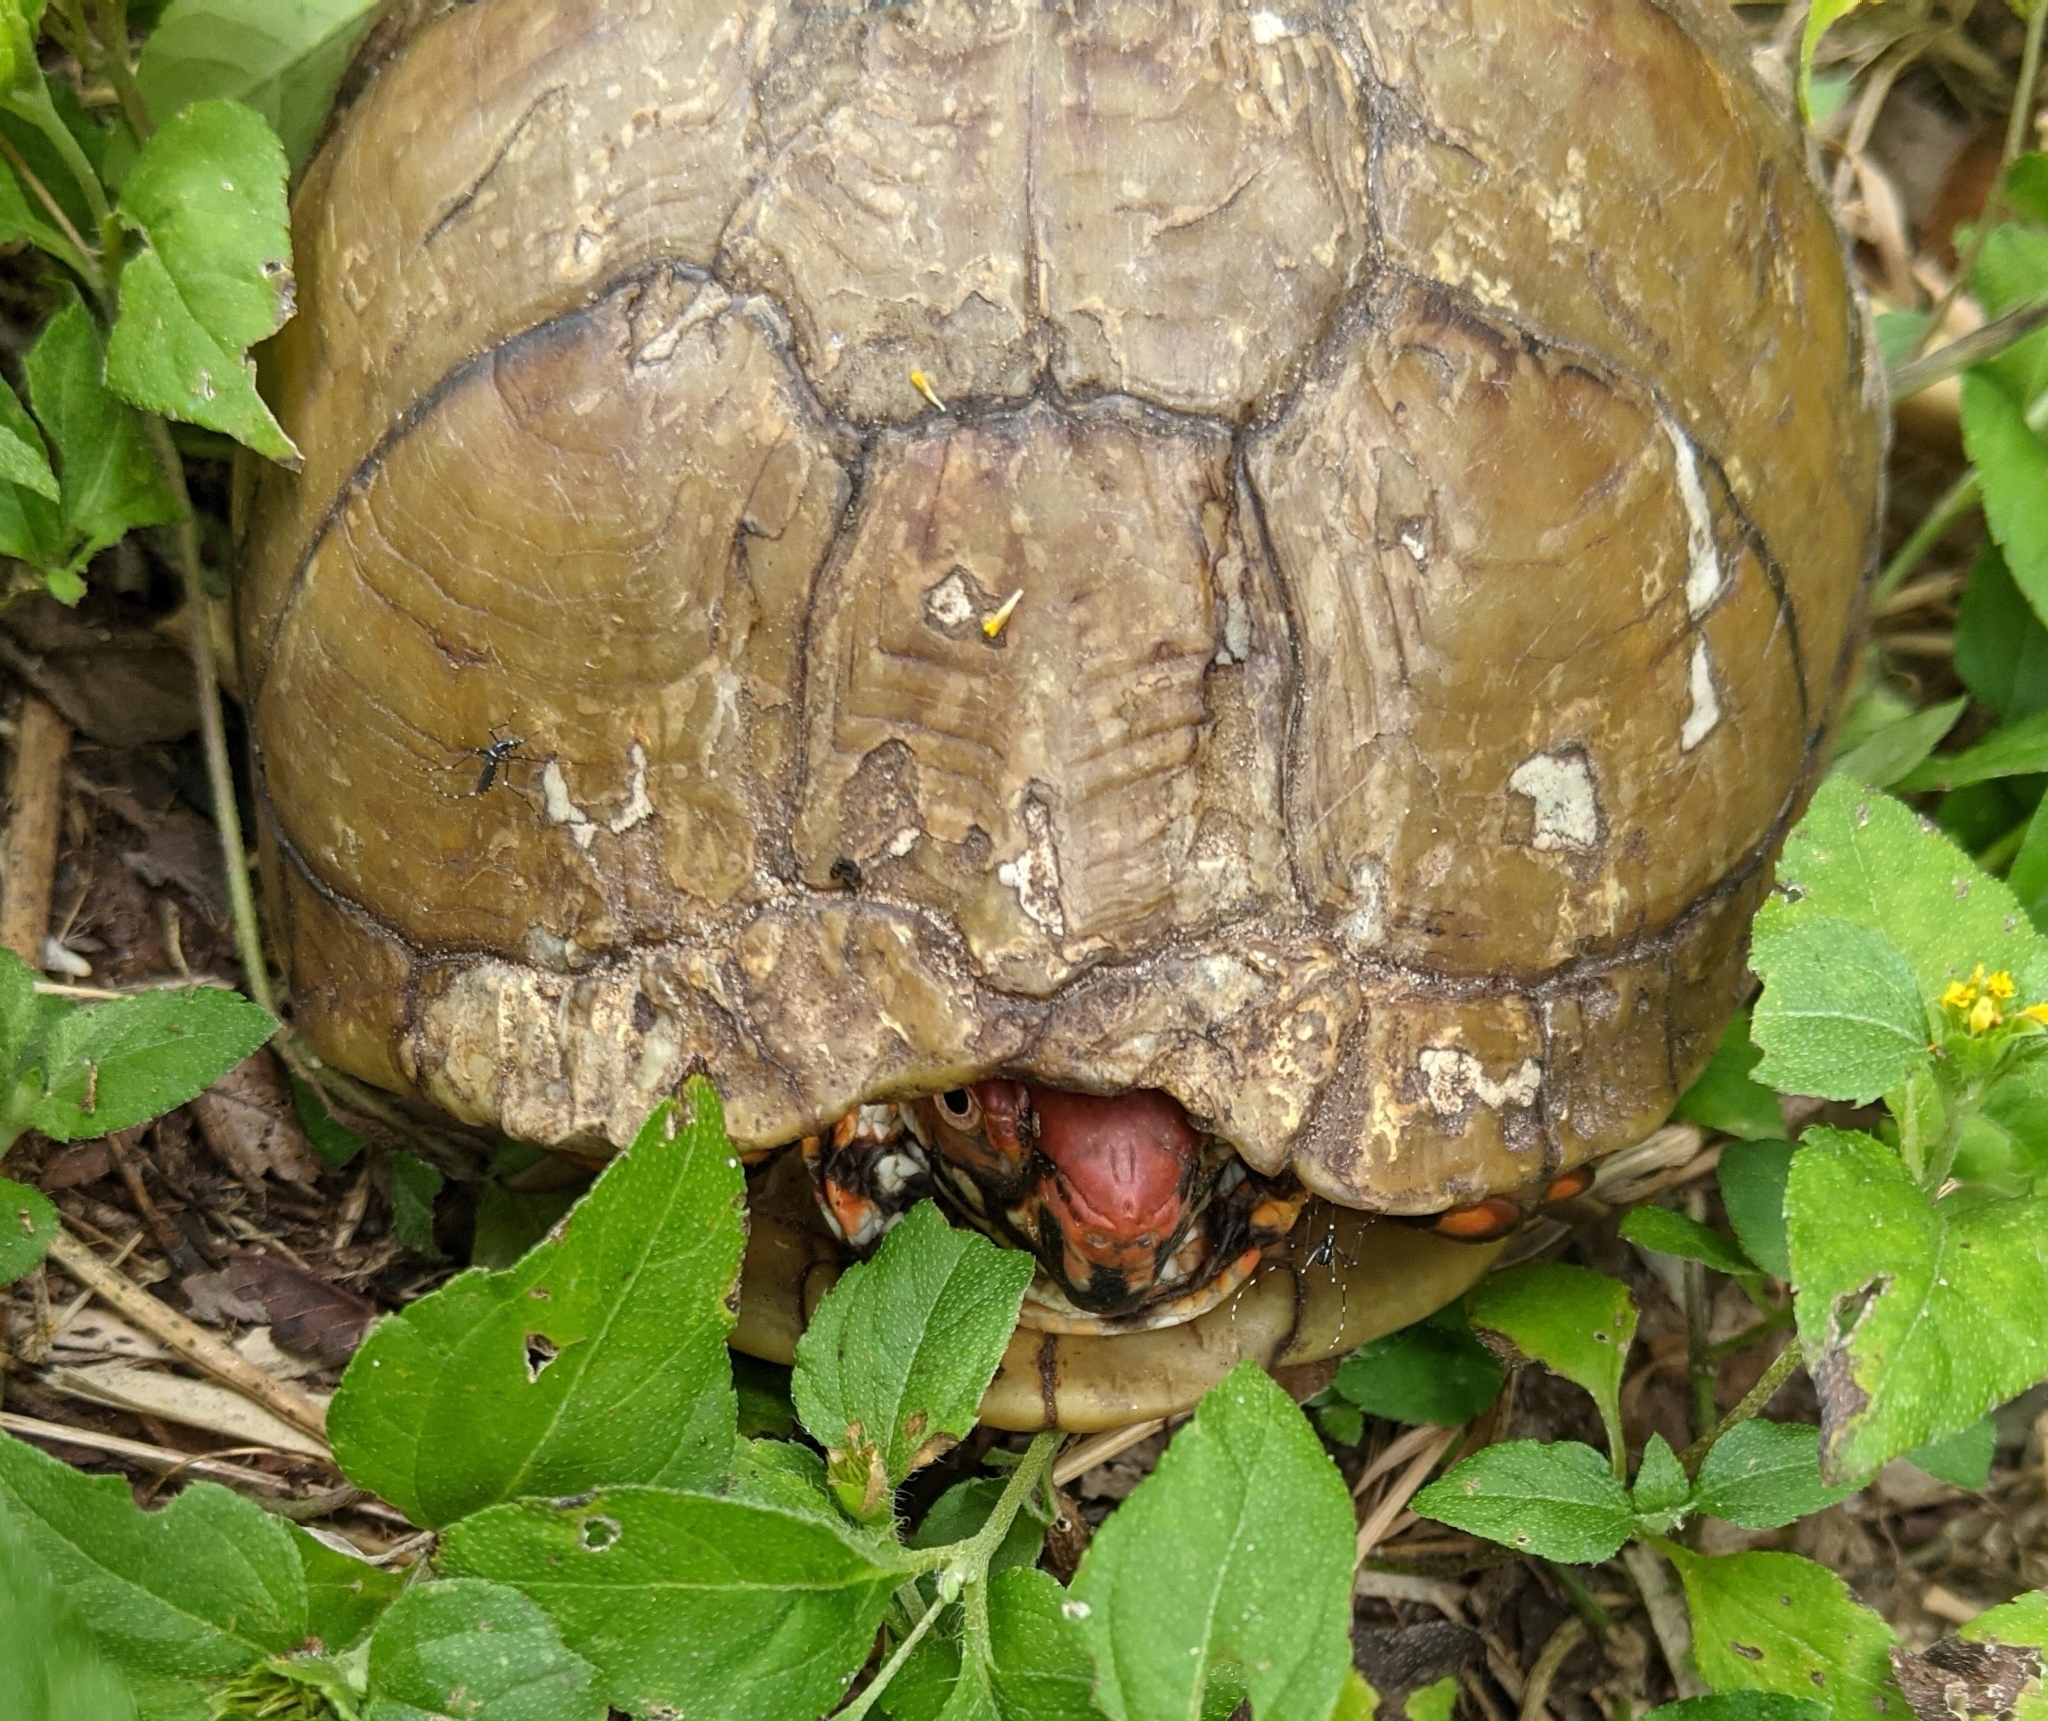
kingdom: Animalia
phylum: Chordata
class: Testudines
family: Emydidae
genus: Terrapene
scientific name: Terrapene carolina
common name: Common box turtle
